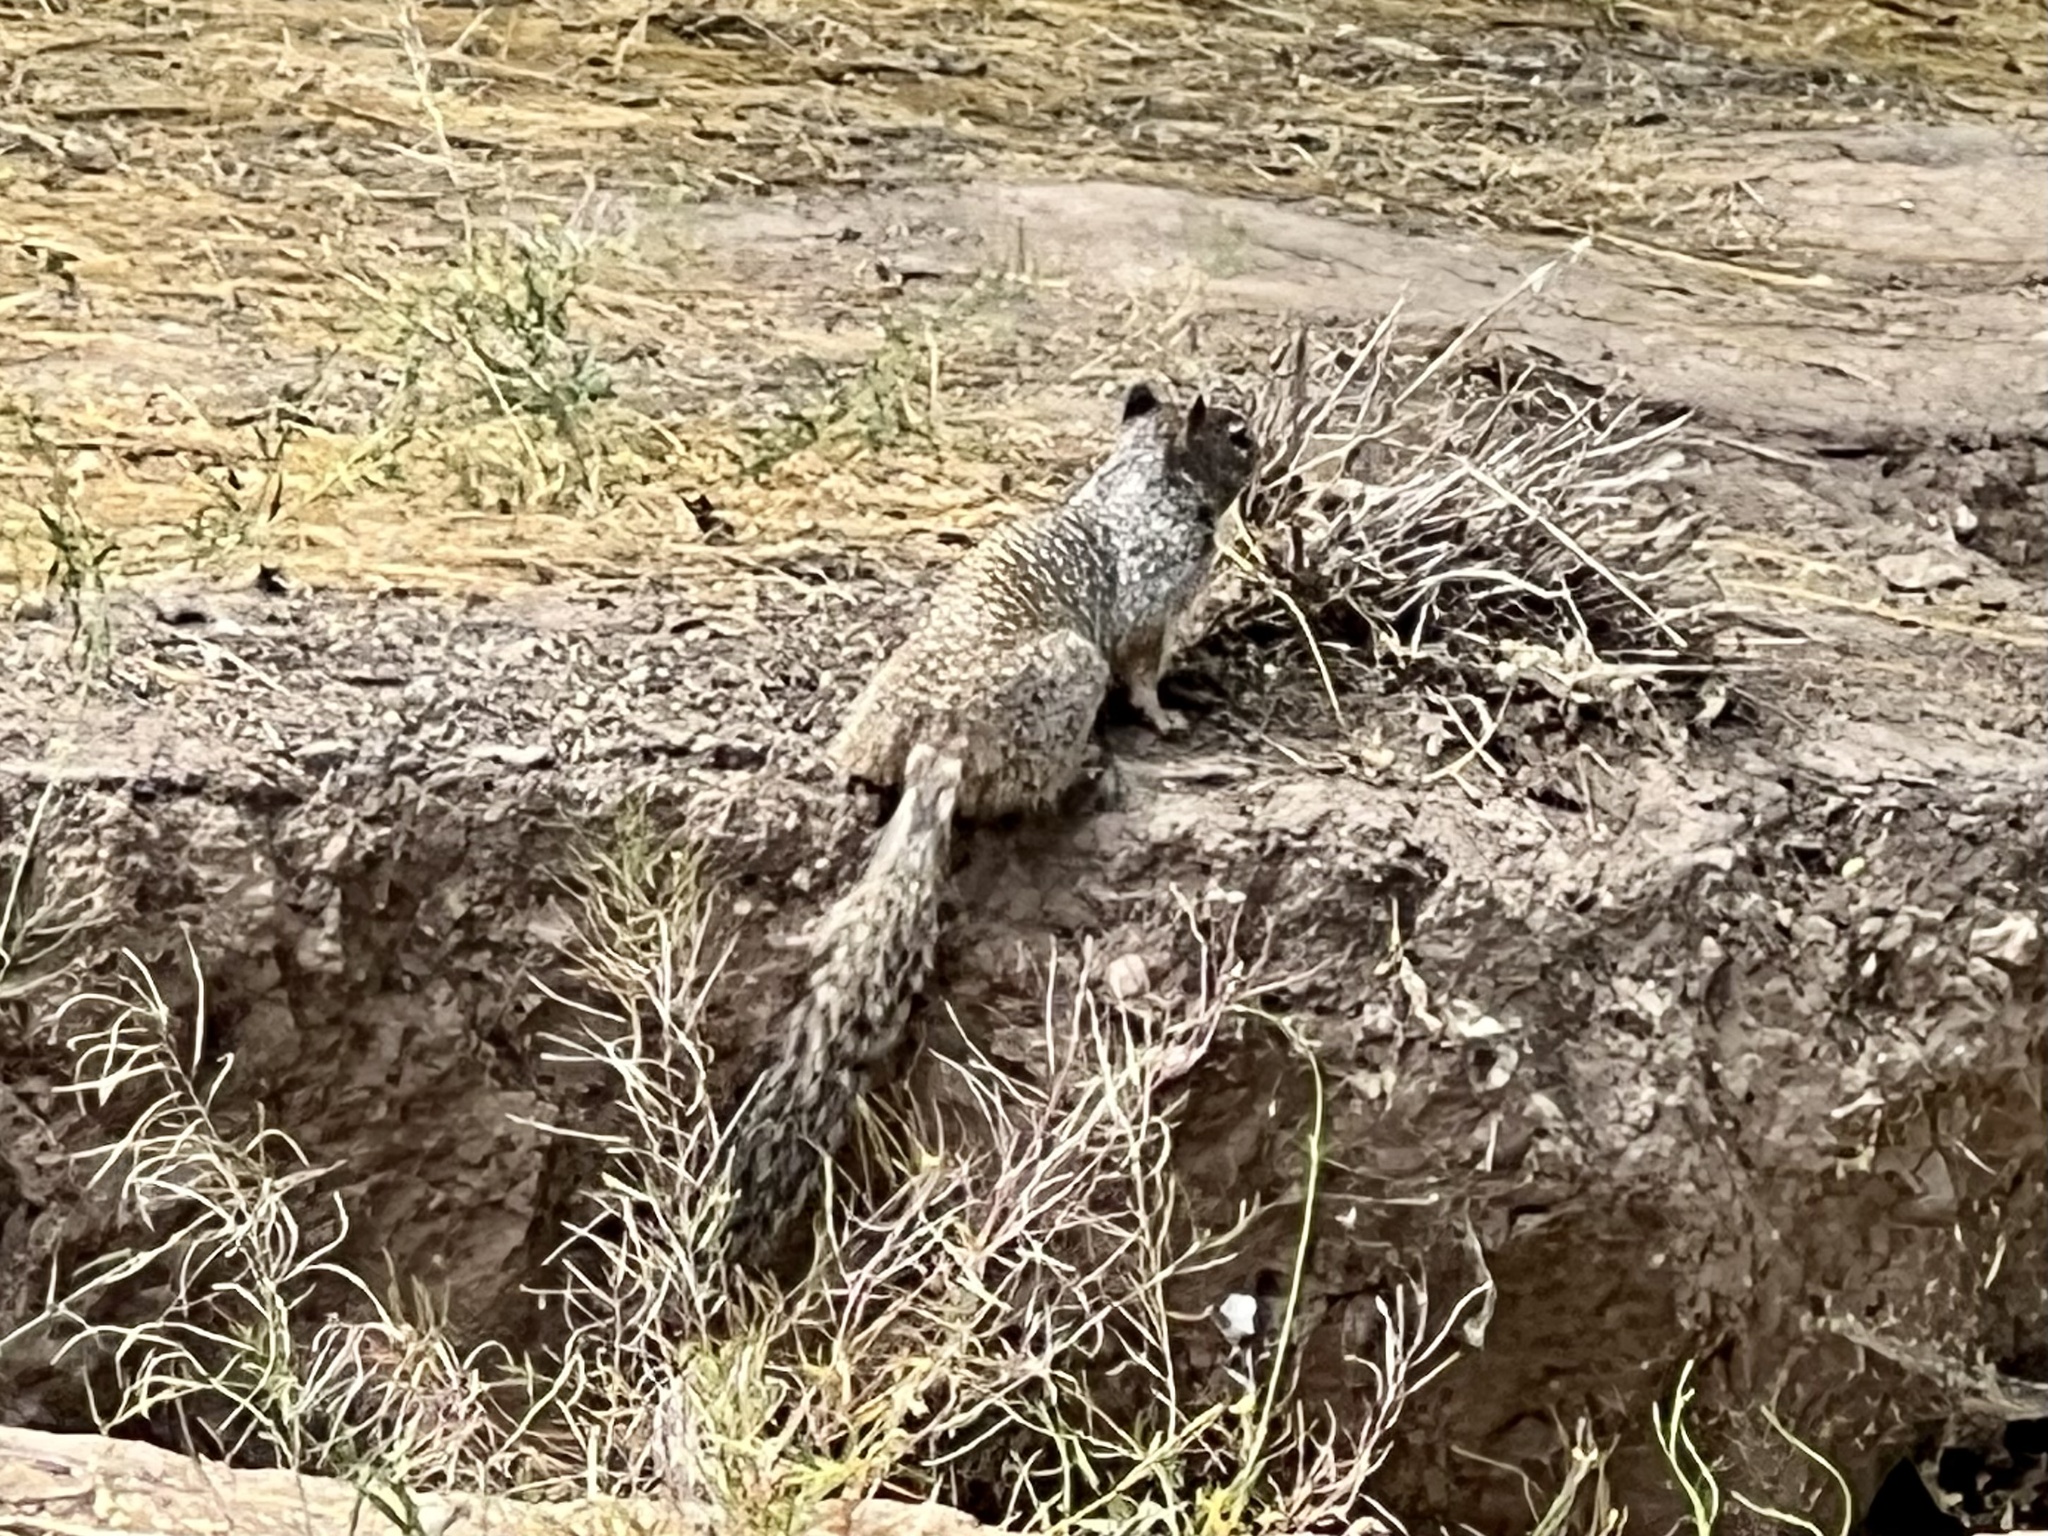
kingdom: Animalia
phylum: Chordata
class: Mammalia
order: Rodentia
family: Sciuridae
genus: Otospermophilus
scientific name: Otospermophilus variegatus
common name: Rock squirrel
